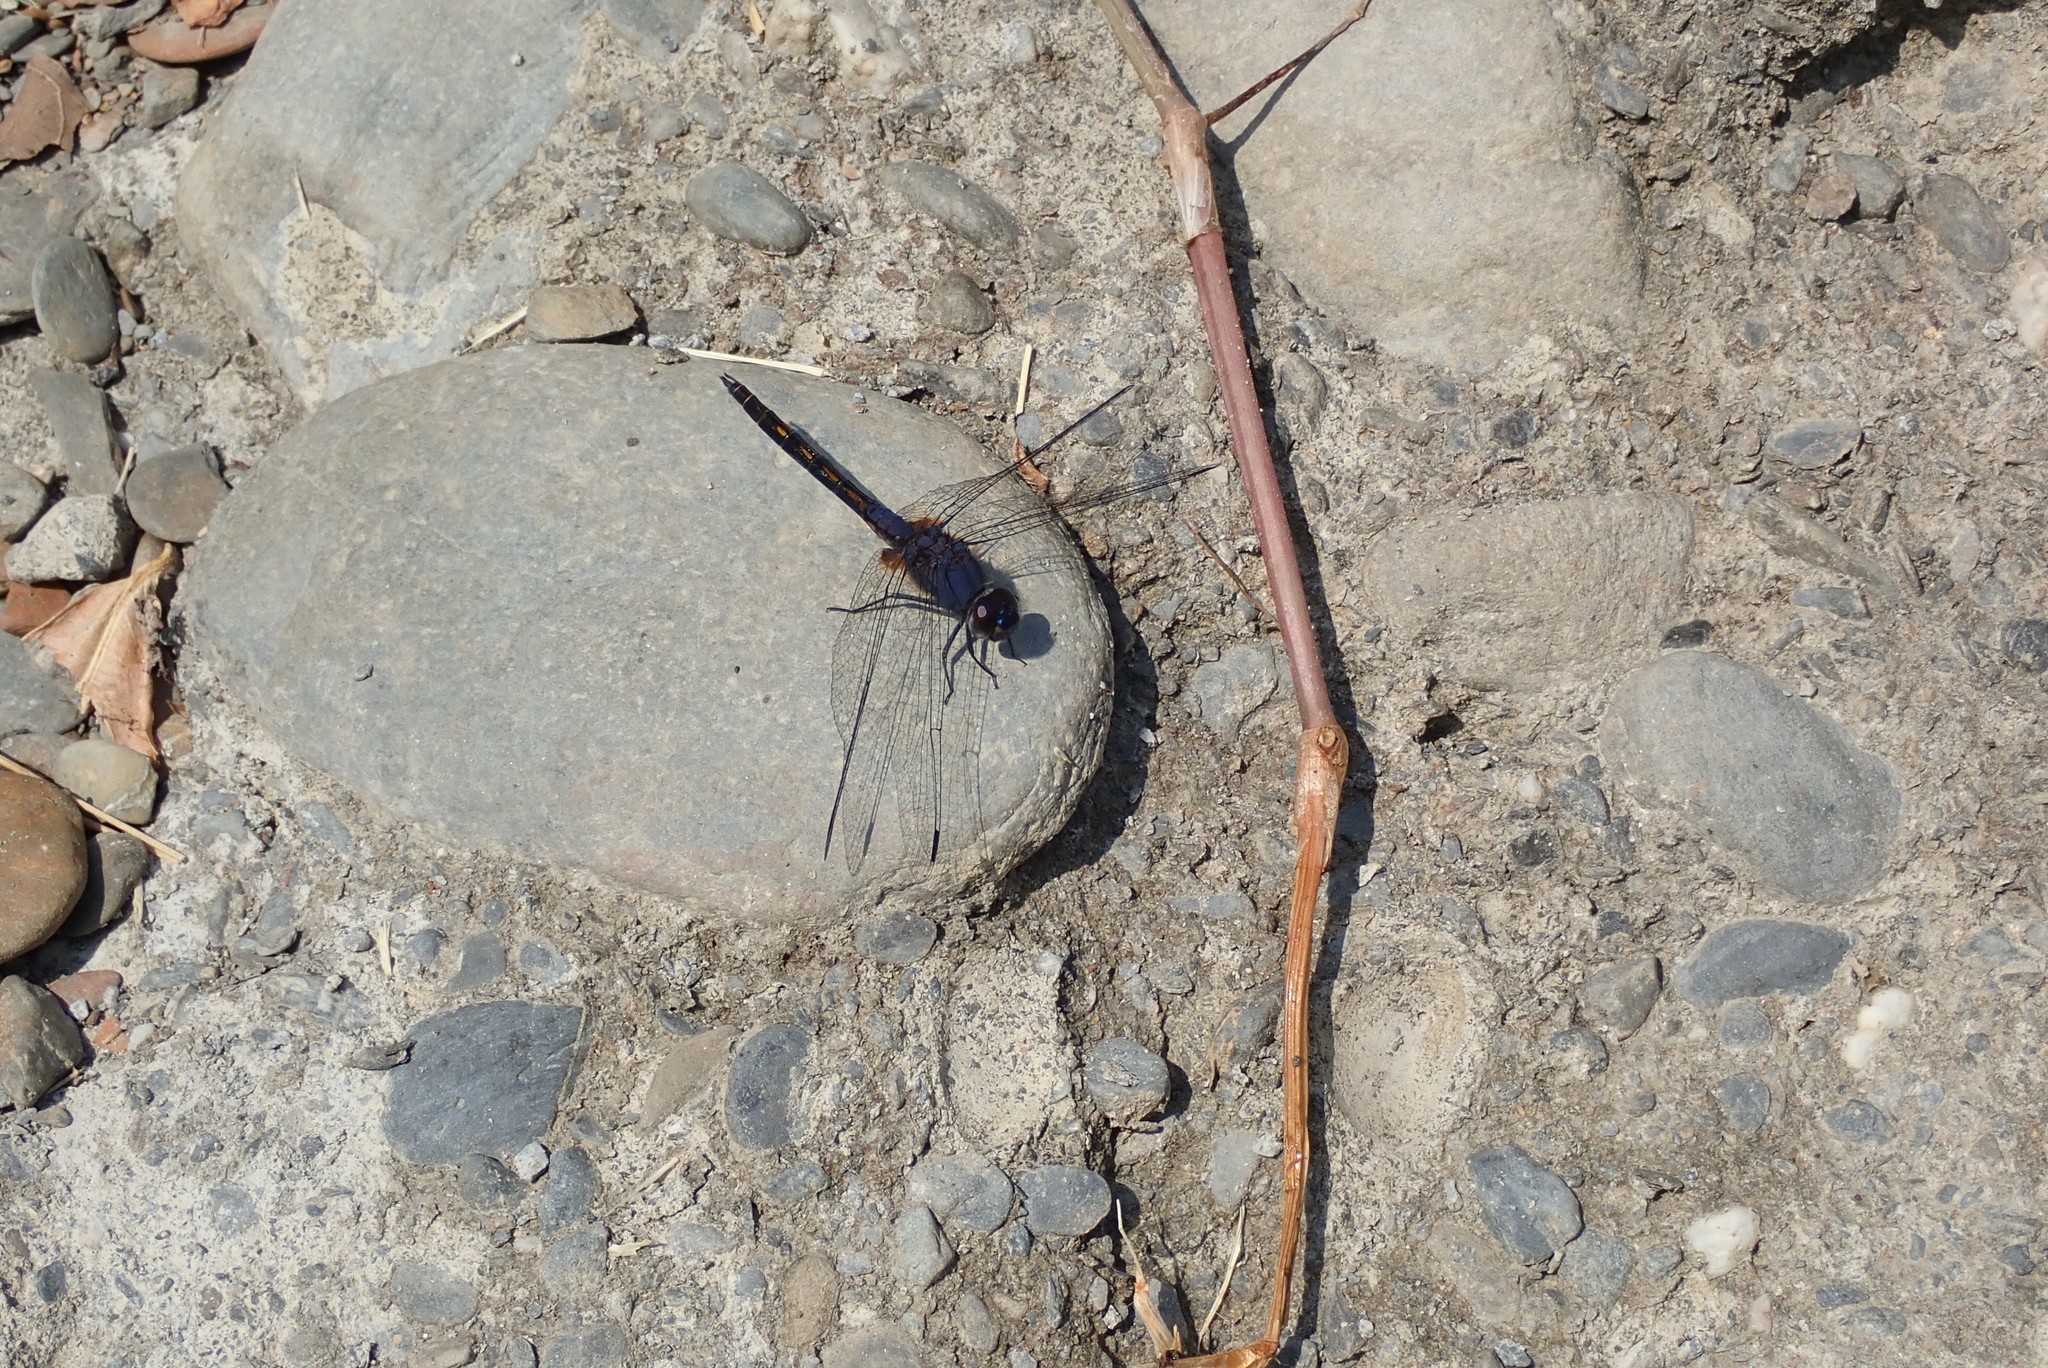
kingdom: Animalia
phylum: Arthropoda
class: Insecta
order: Odonata
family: Libellulidae
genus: Trithemis
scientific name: Trithemis festiva
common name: Indigo dropwing
